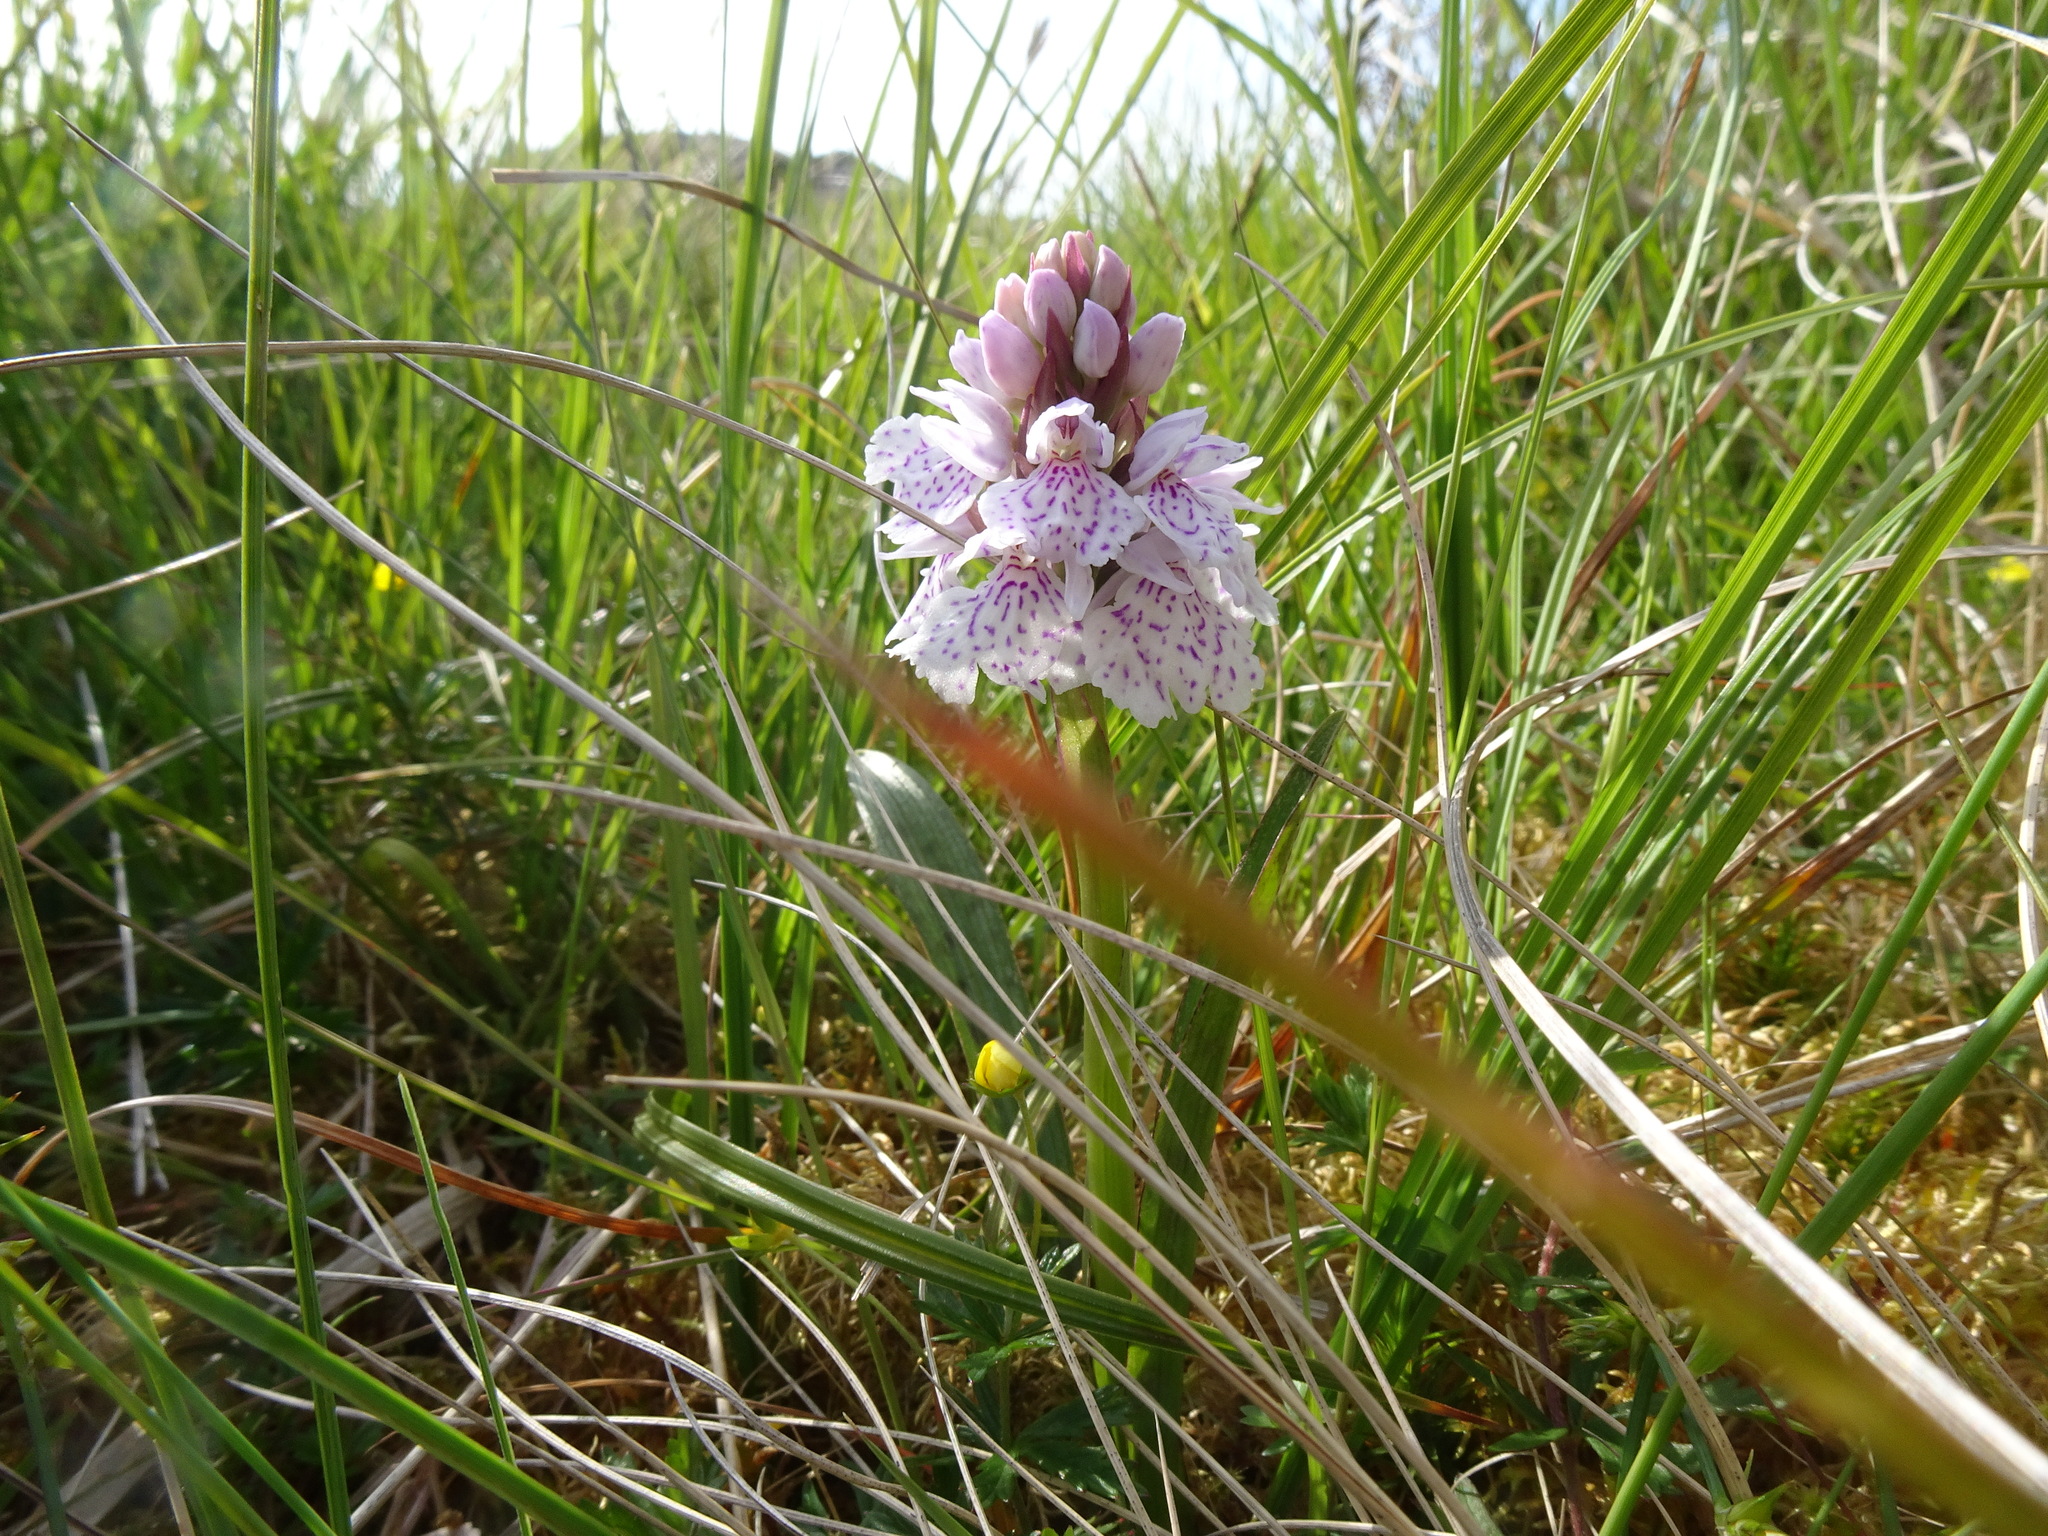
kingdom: Plantae
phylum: Tracheophyta
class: Liliopsida
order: Asparagales
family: Orchidaceae
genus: Dactylorhiza
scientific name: Dactylorhiza maculata
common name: Heath spotted-orchid
